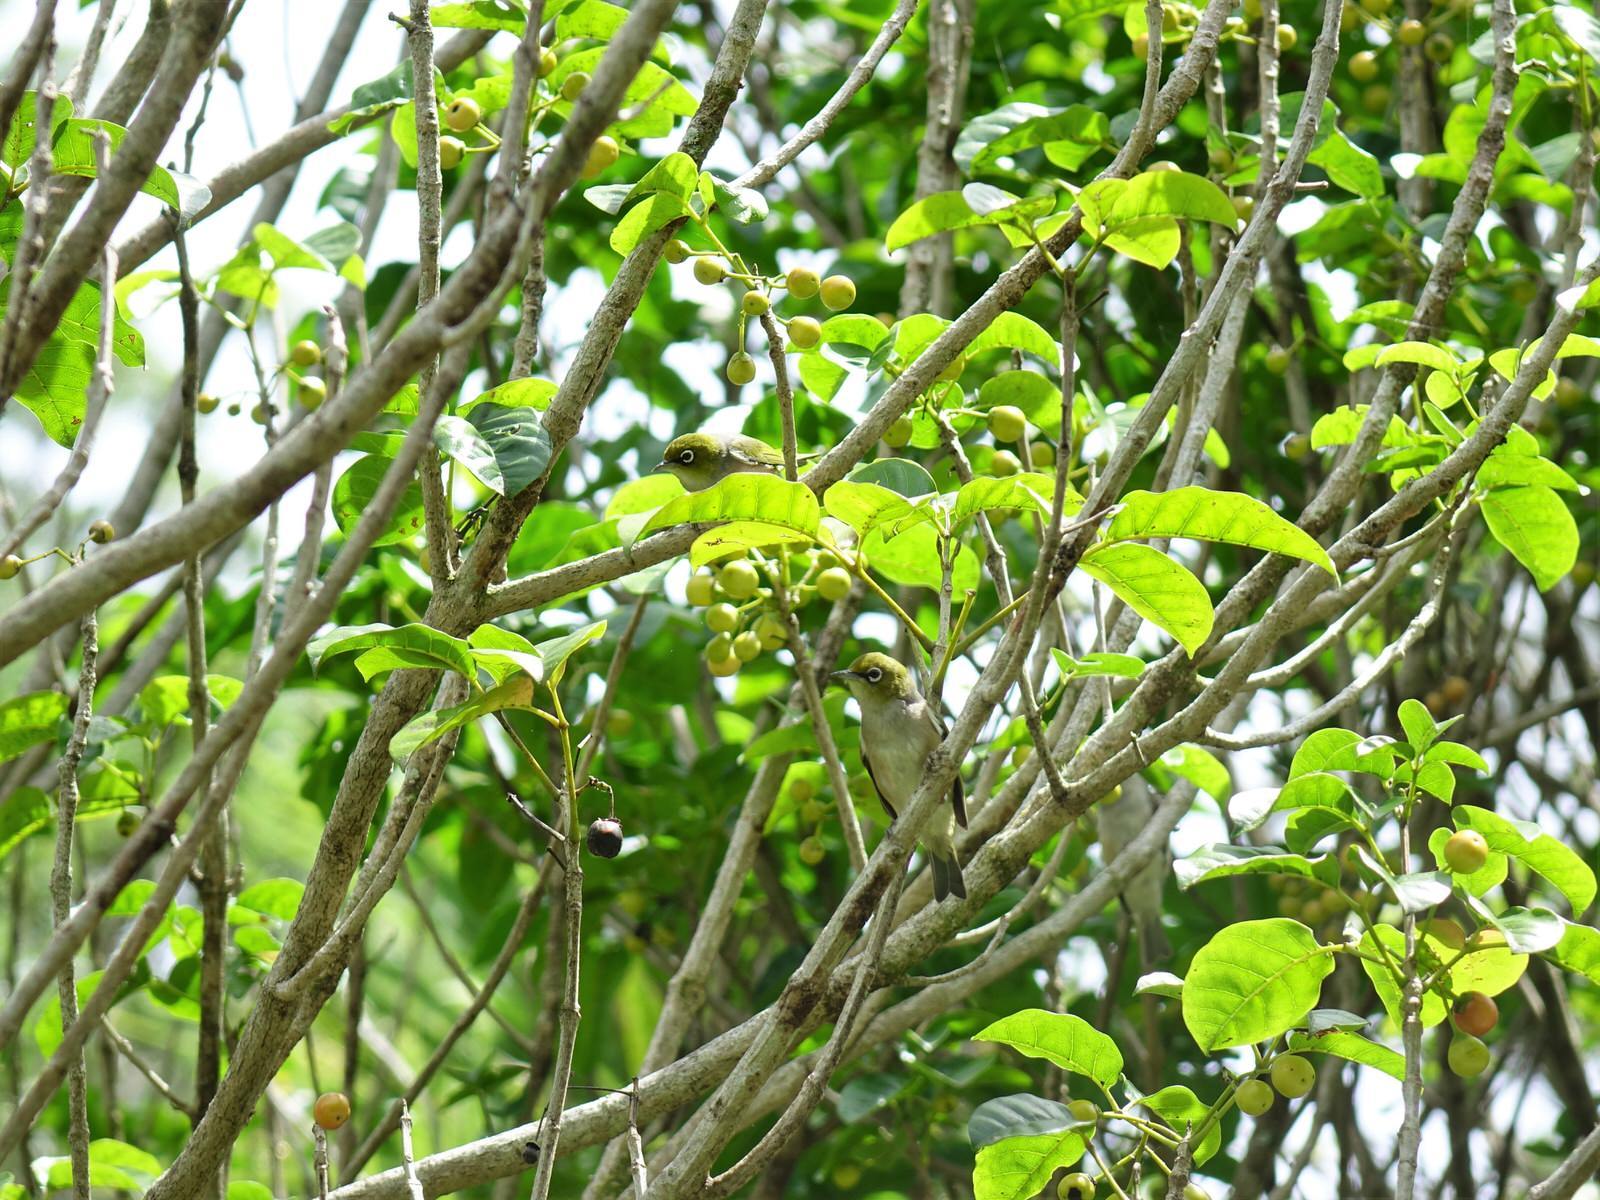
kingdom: Animalia
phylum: Chordata
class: Aves
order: Passeriformes
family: Zosteropidae
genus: Zosterops
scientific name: Zosterops lateralis
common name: Silvereye
